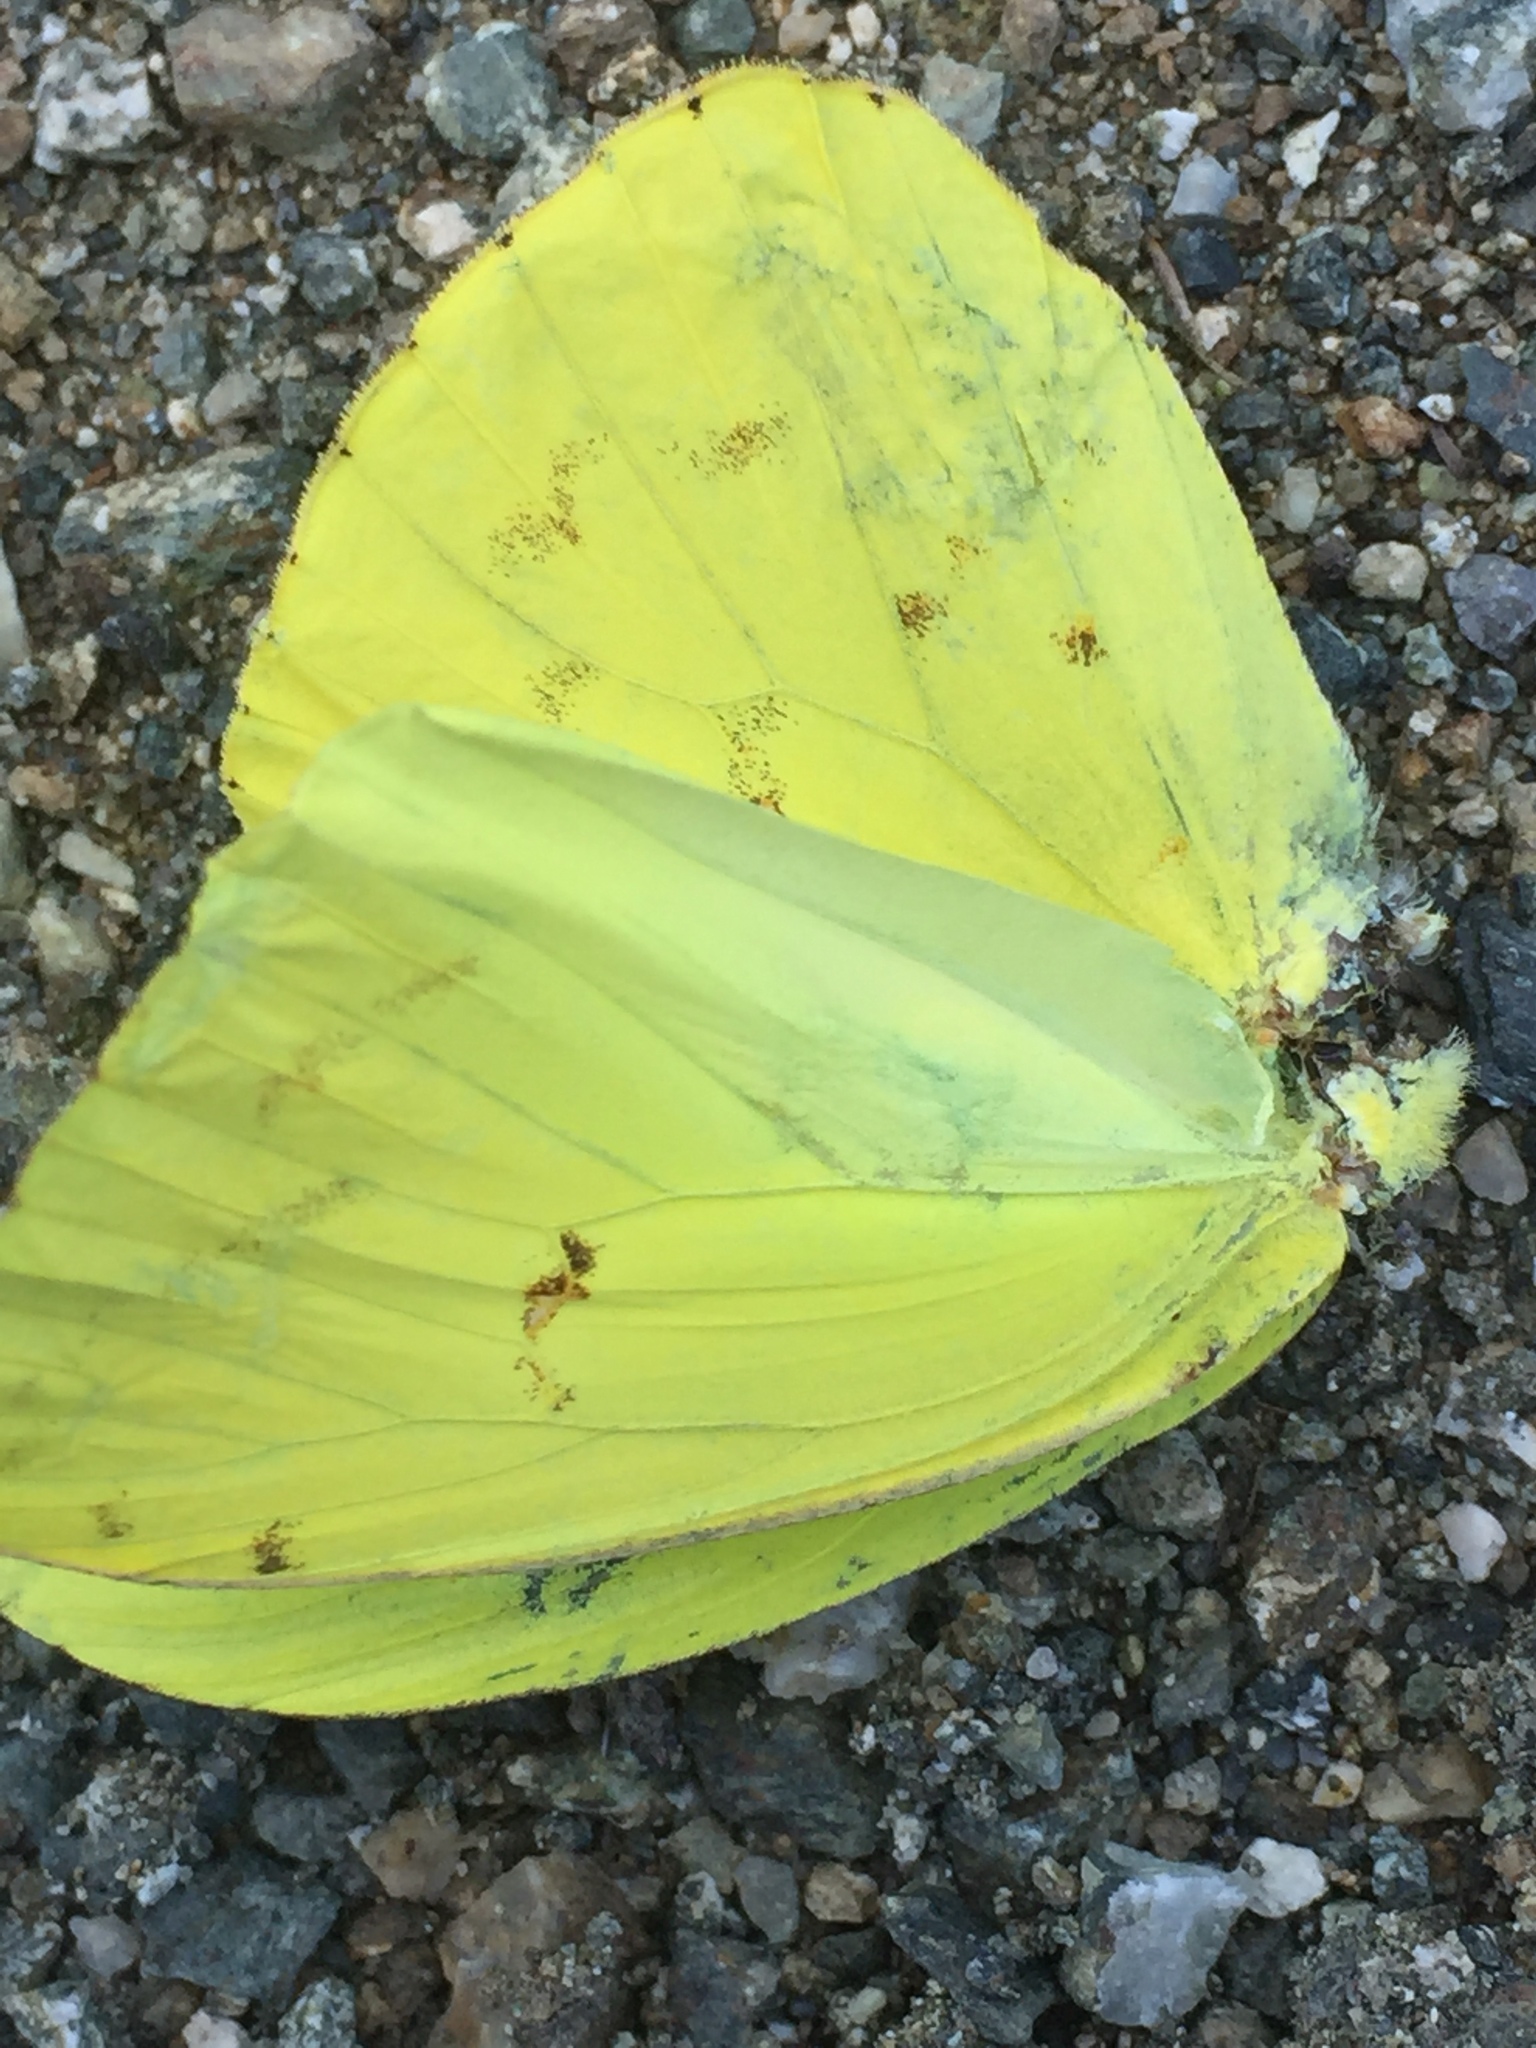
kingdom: Animalia
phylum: Arthropoda
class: Insecta
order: Lepidoptera
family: Pieridae
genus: Phoebis
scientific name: Phoebis sennae
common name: Cloudless sulphur
